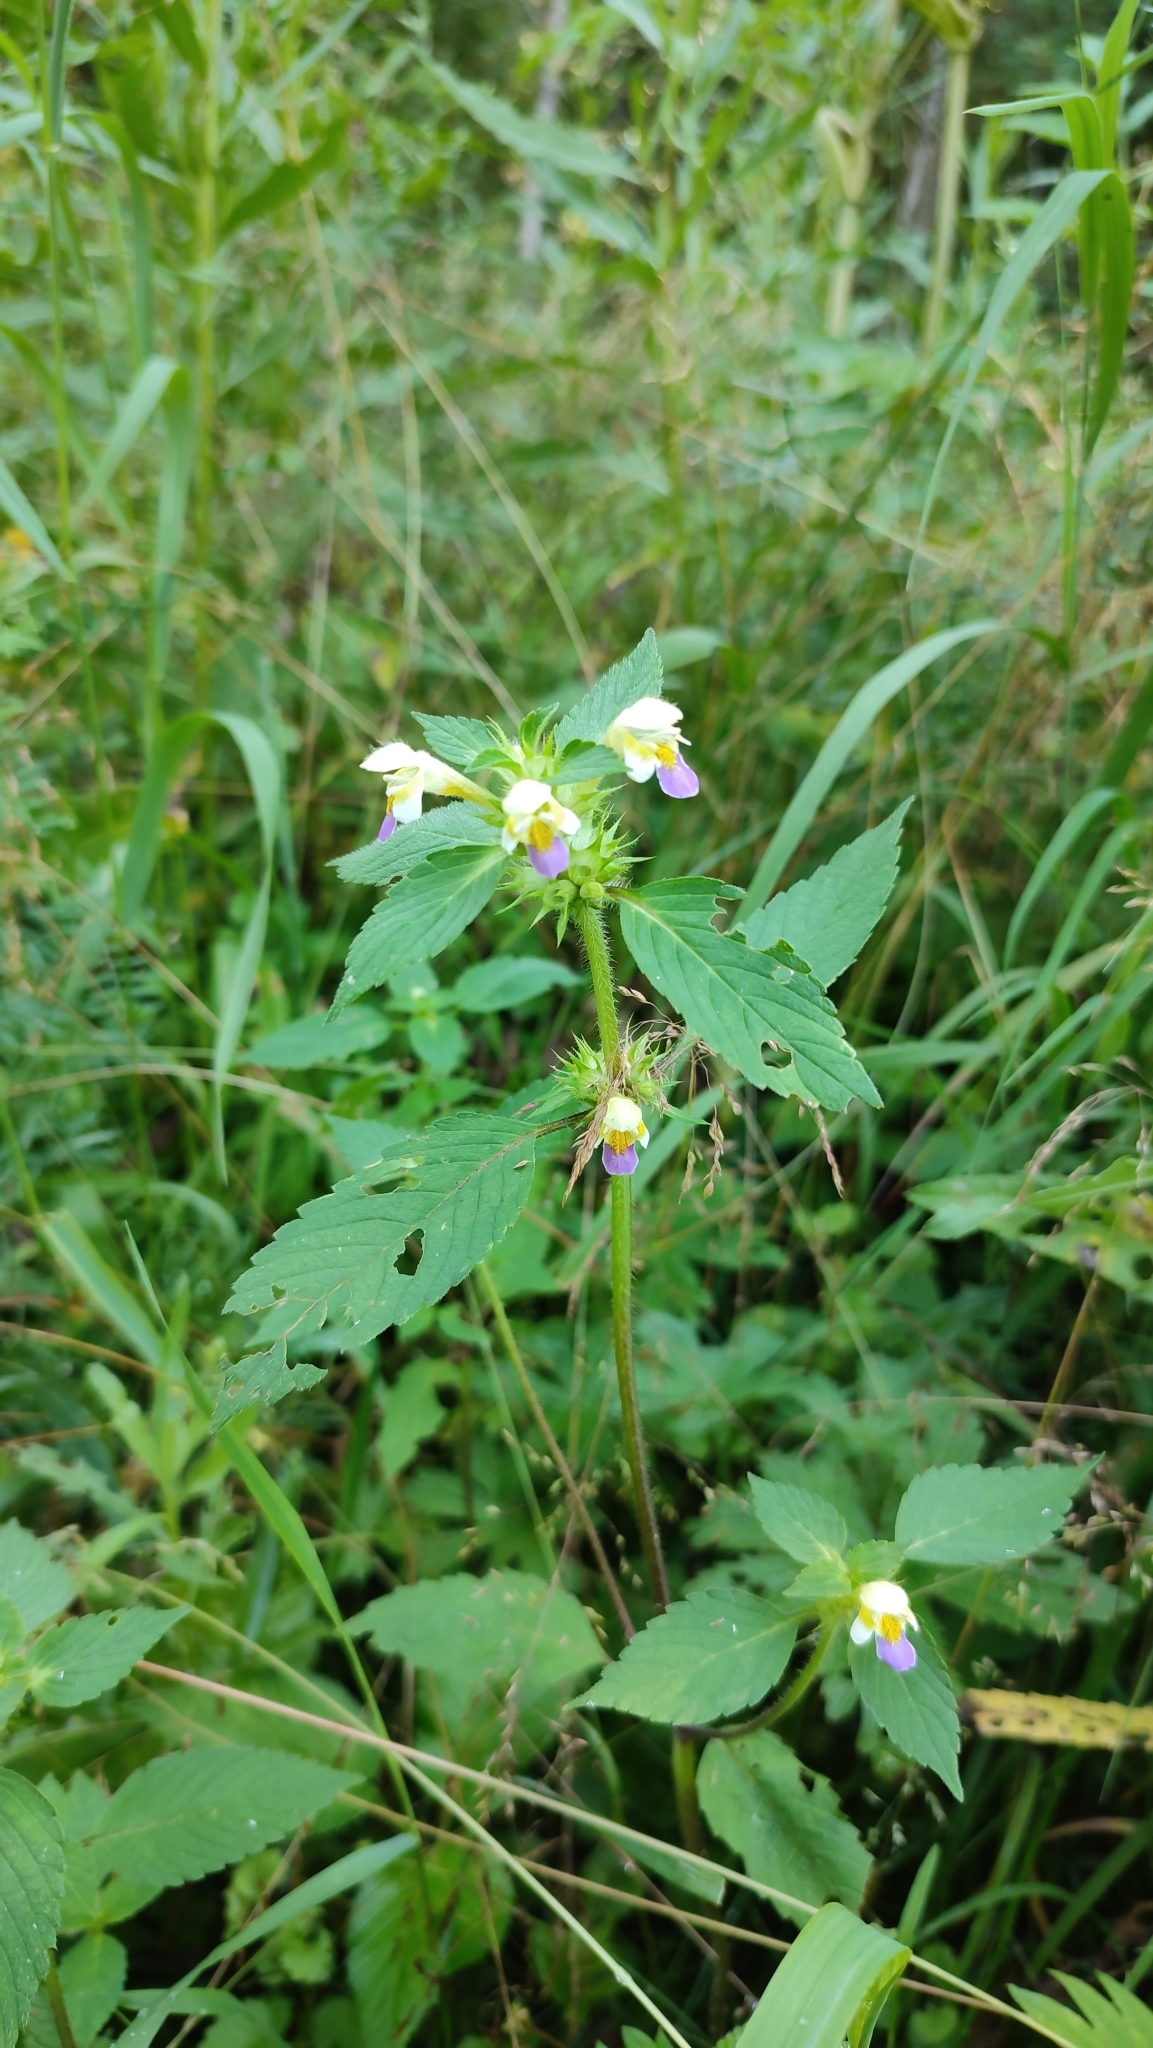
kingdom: Plantae
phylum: Tracheophyta
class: Magnoliopsida
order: Lamiales
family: Lamiaceae
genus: Galeopsis
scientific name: Galeopsis speciosa
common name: Large-flowered hemp-nettle
